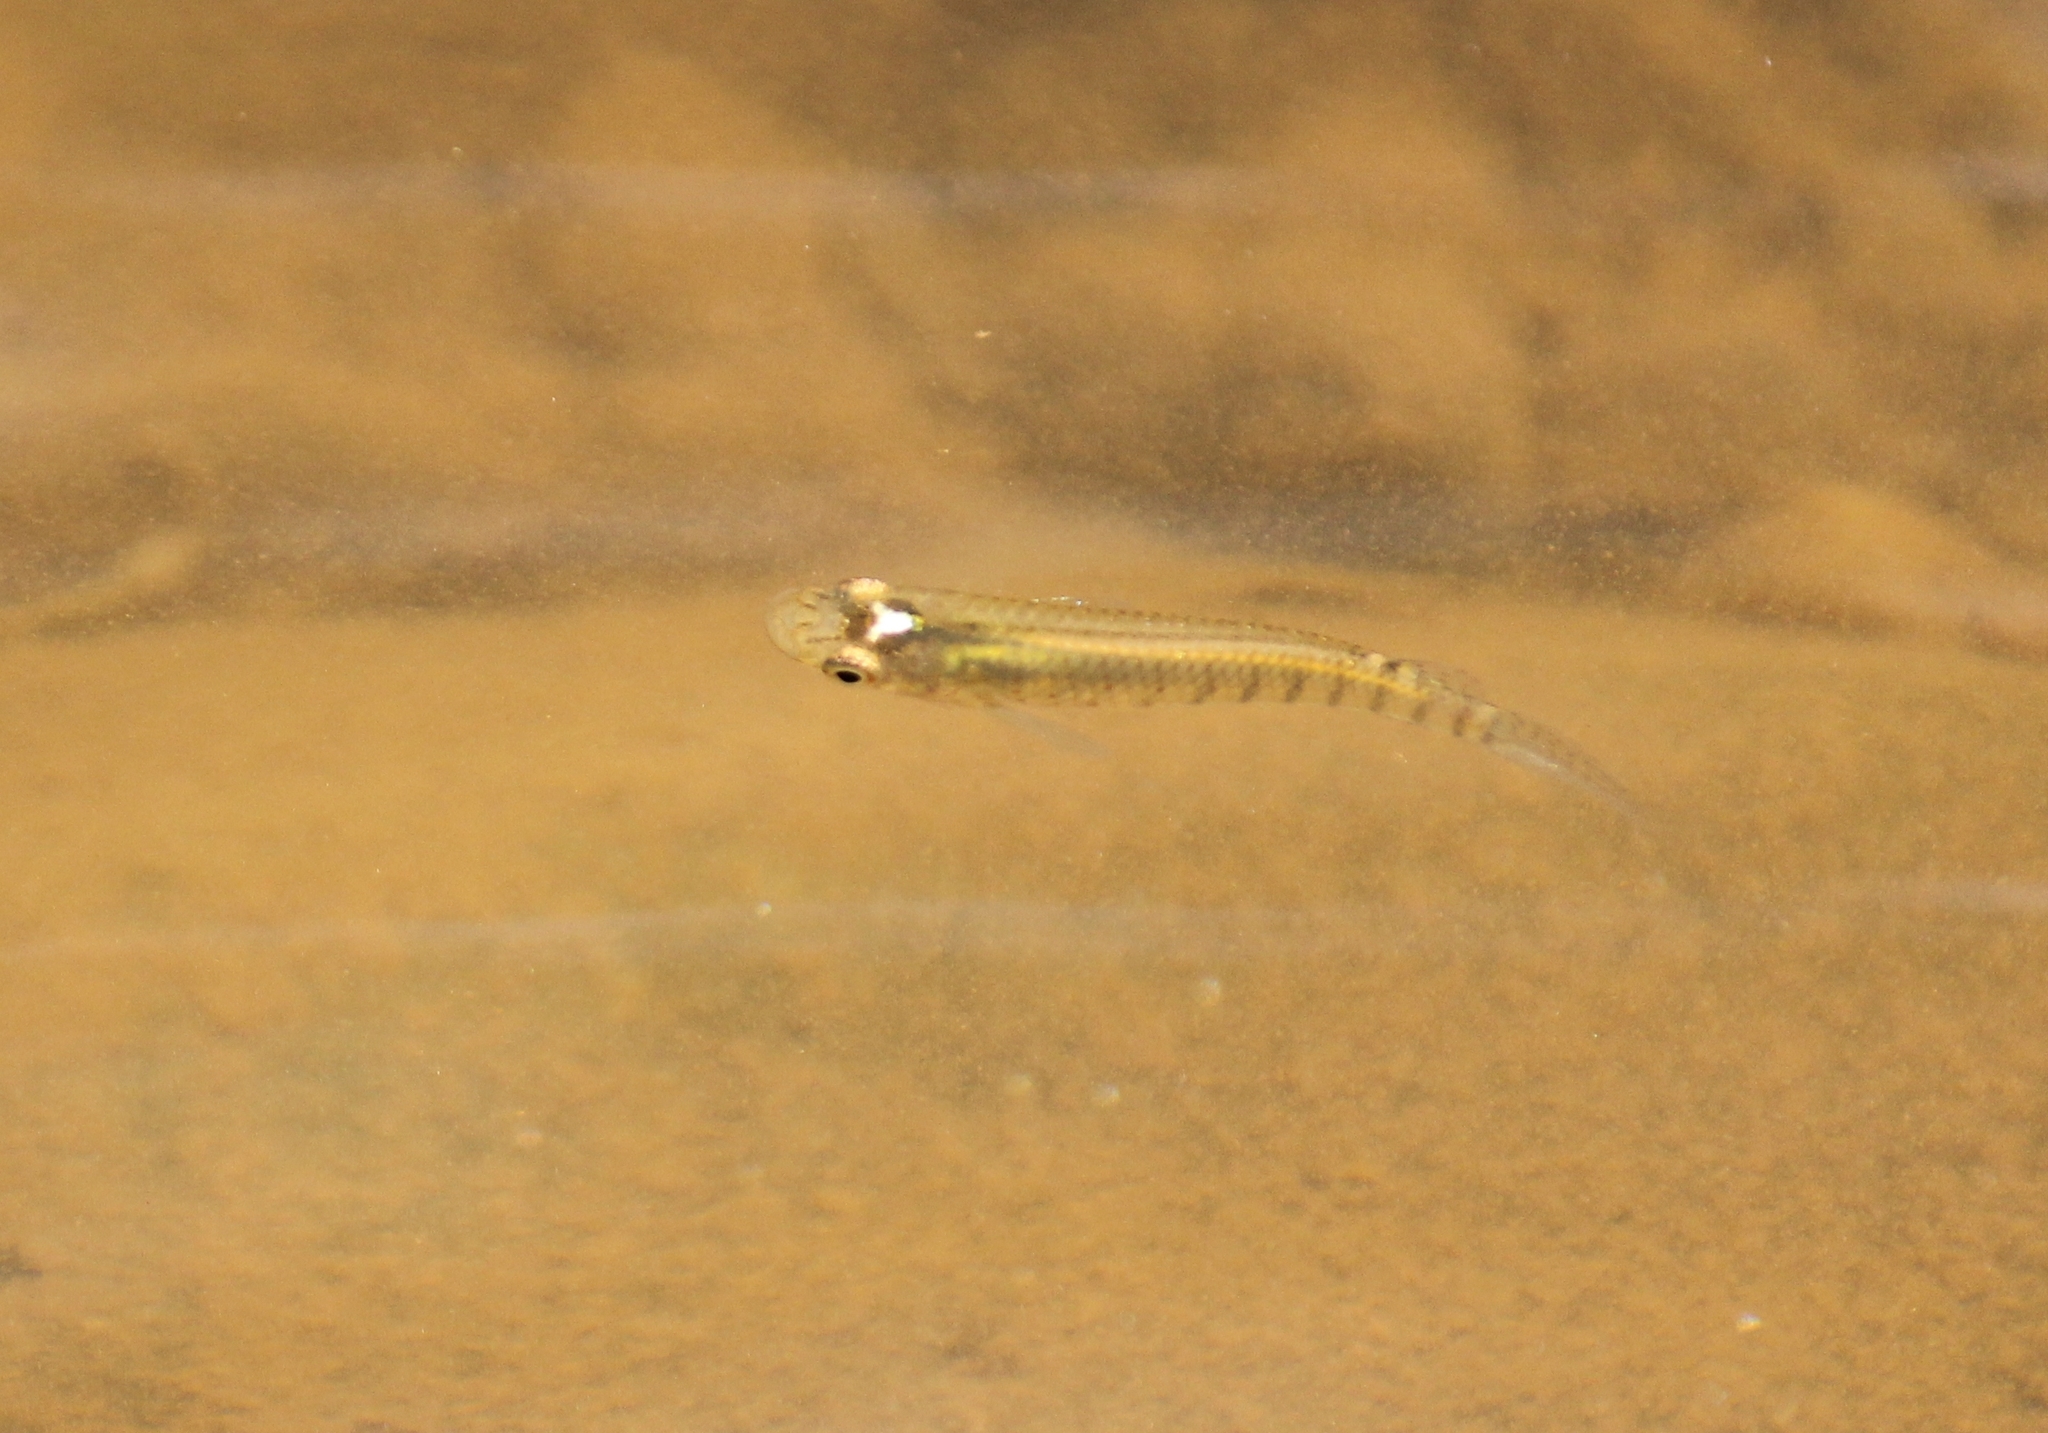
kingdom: Animalia
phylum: Chordata
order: Cyprinodontiformes
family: Aplocheilidae
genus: Aplocheilus
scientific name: Aplocheilus lineatus
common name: Striped panchax
